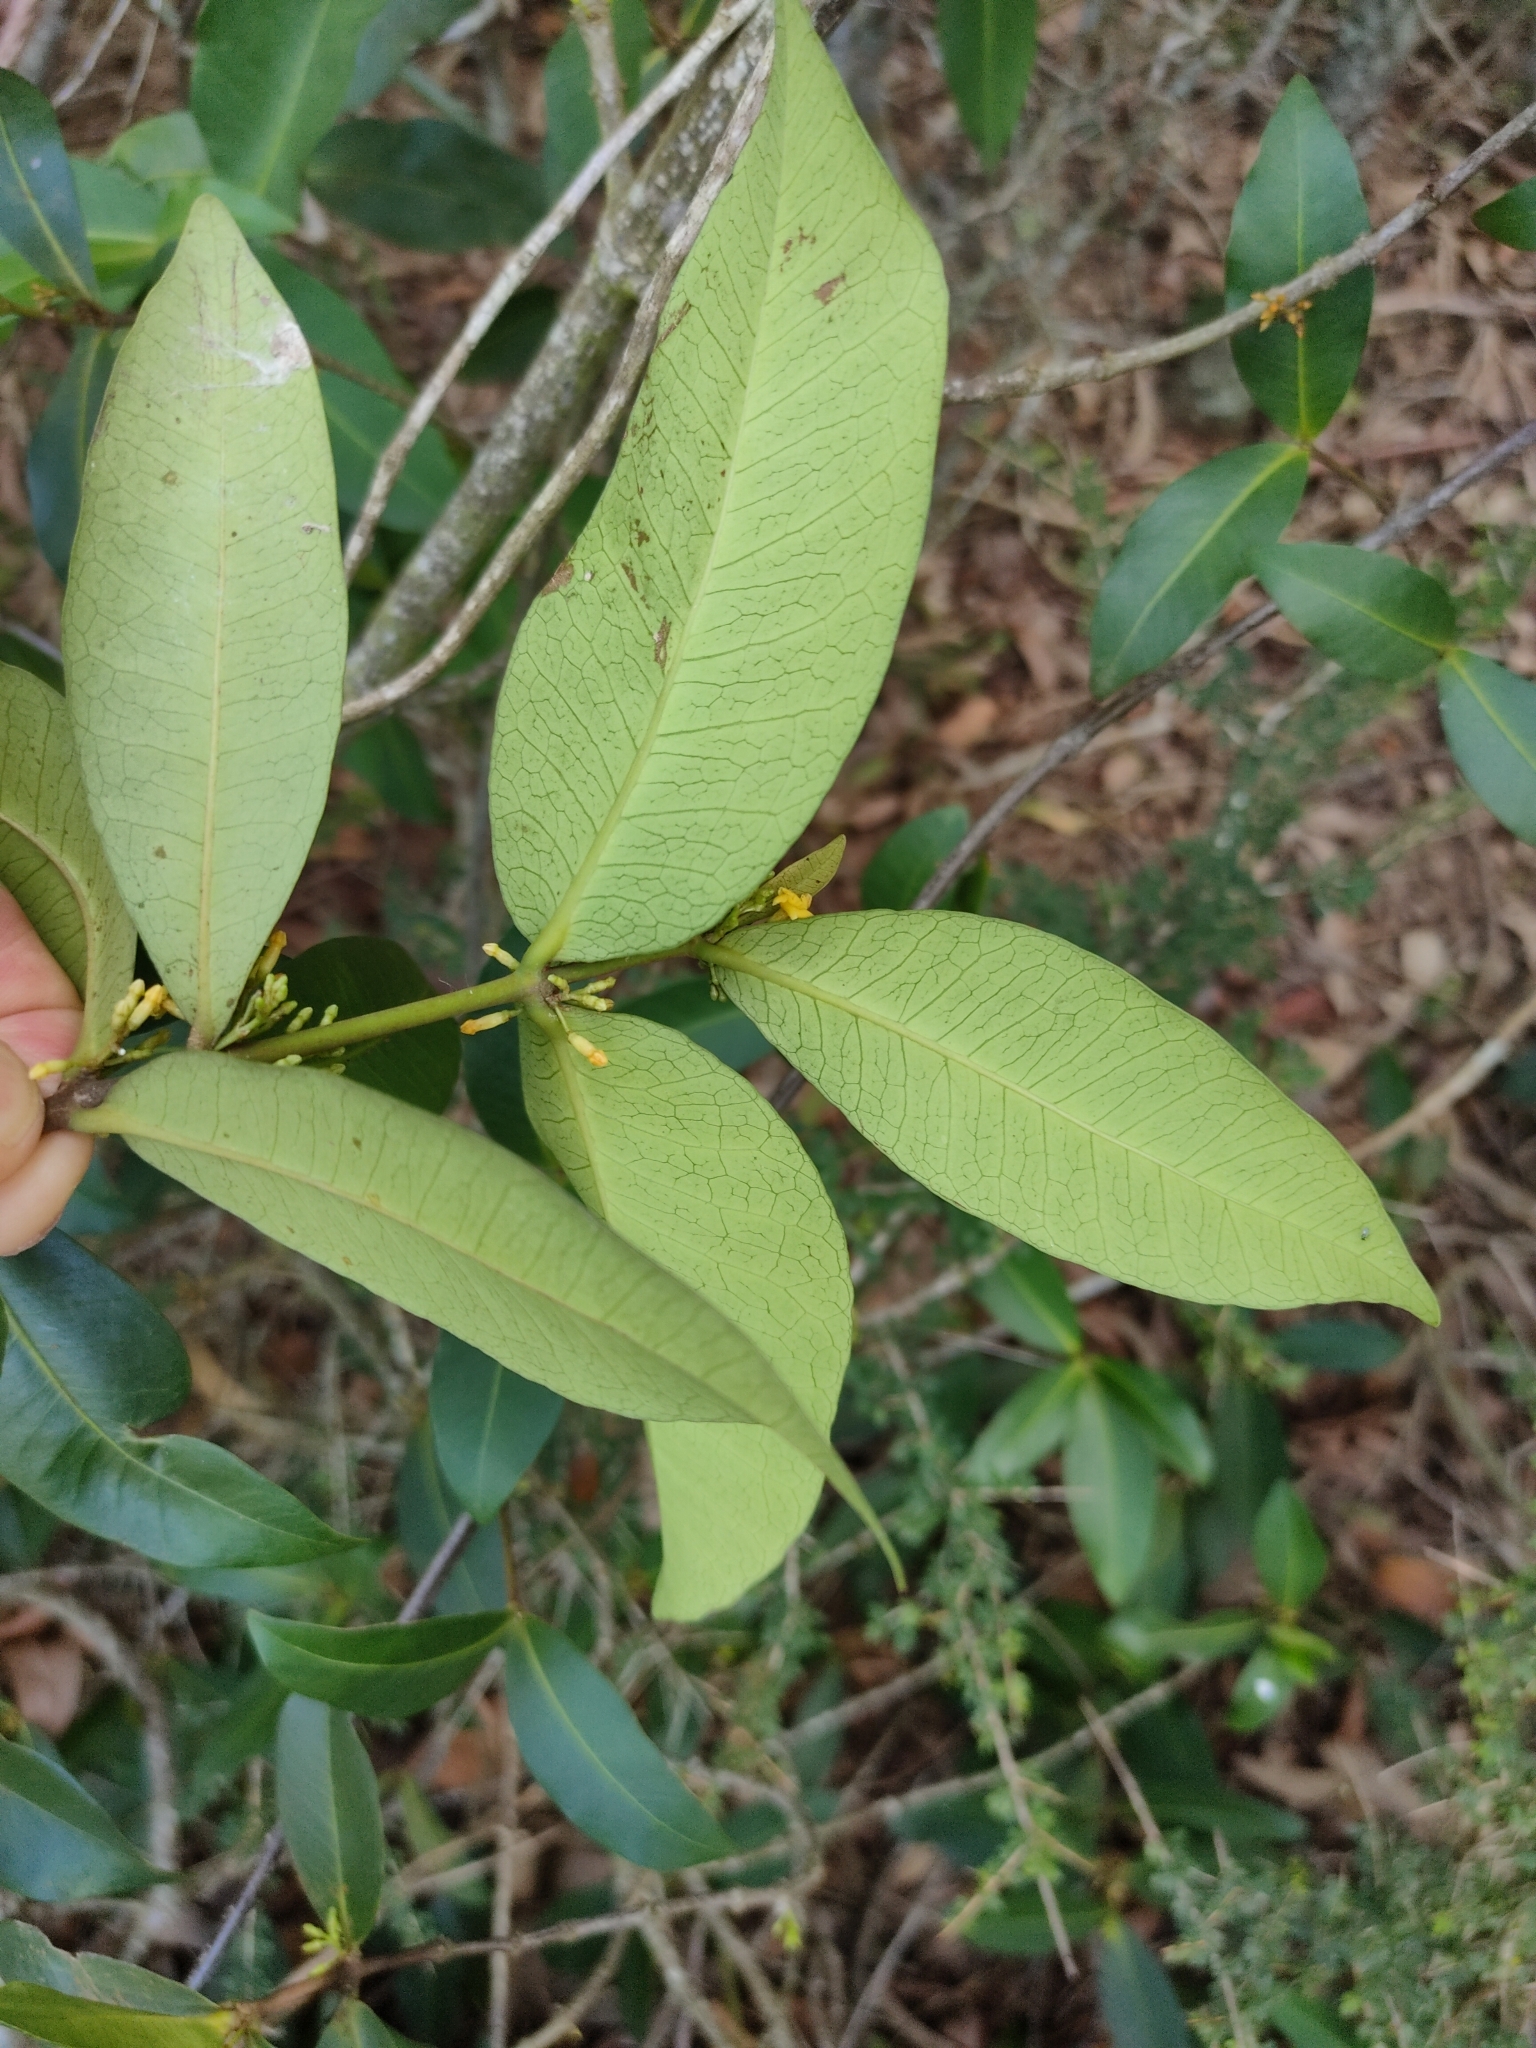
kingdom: Plantae
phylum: Tracheophyta
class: Magnoliopsida
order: Gentianales
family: Apocynaceae
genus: Melodinus
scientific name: Melodinus australis
